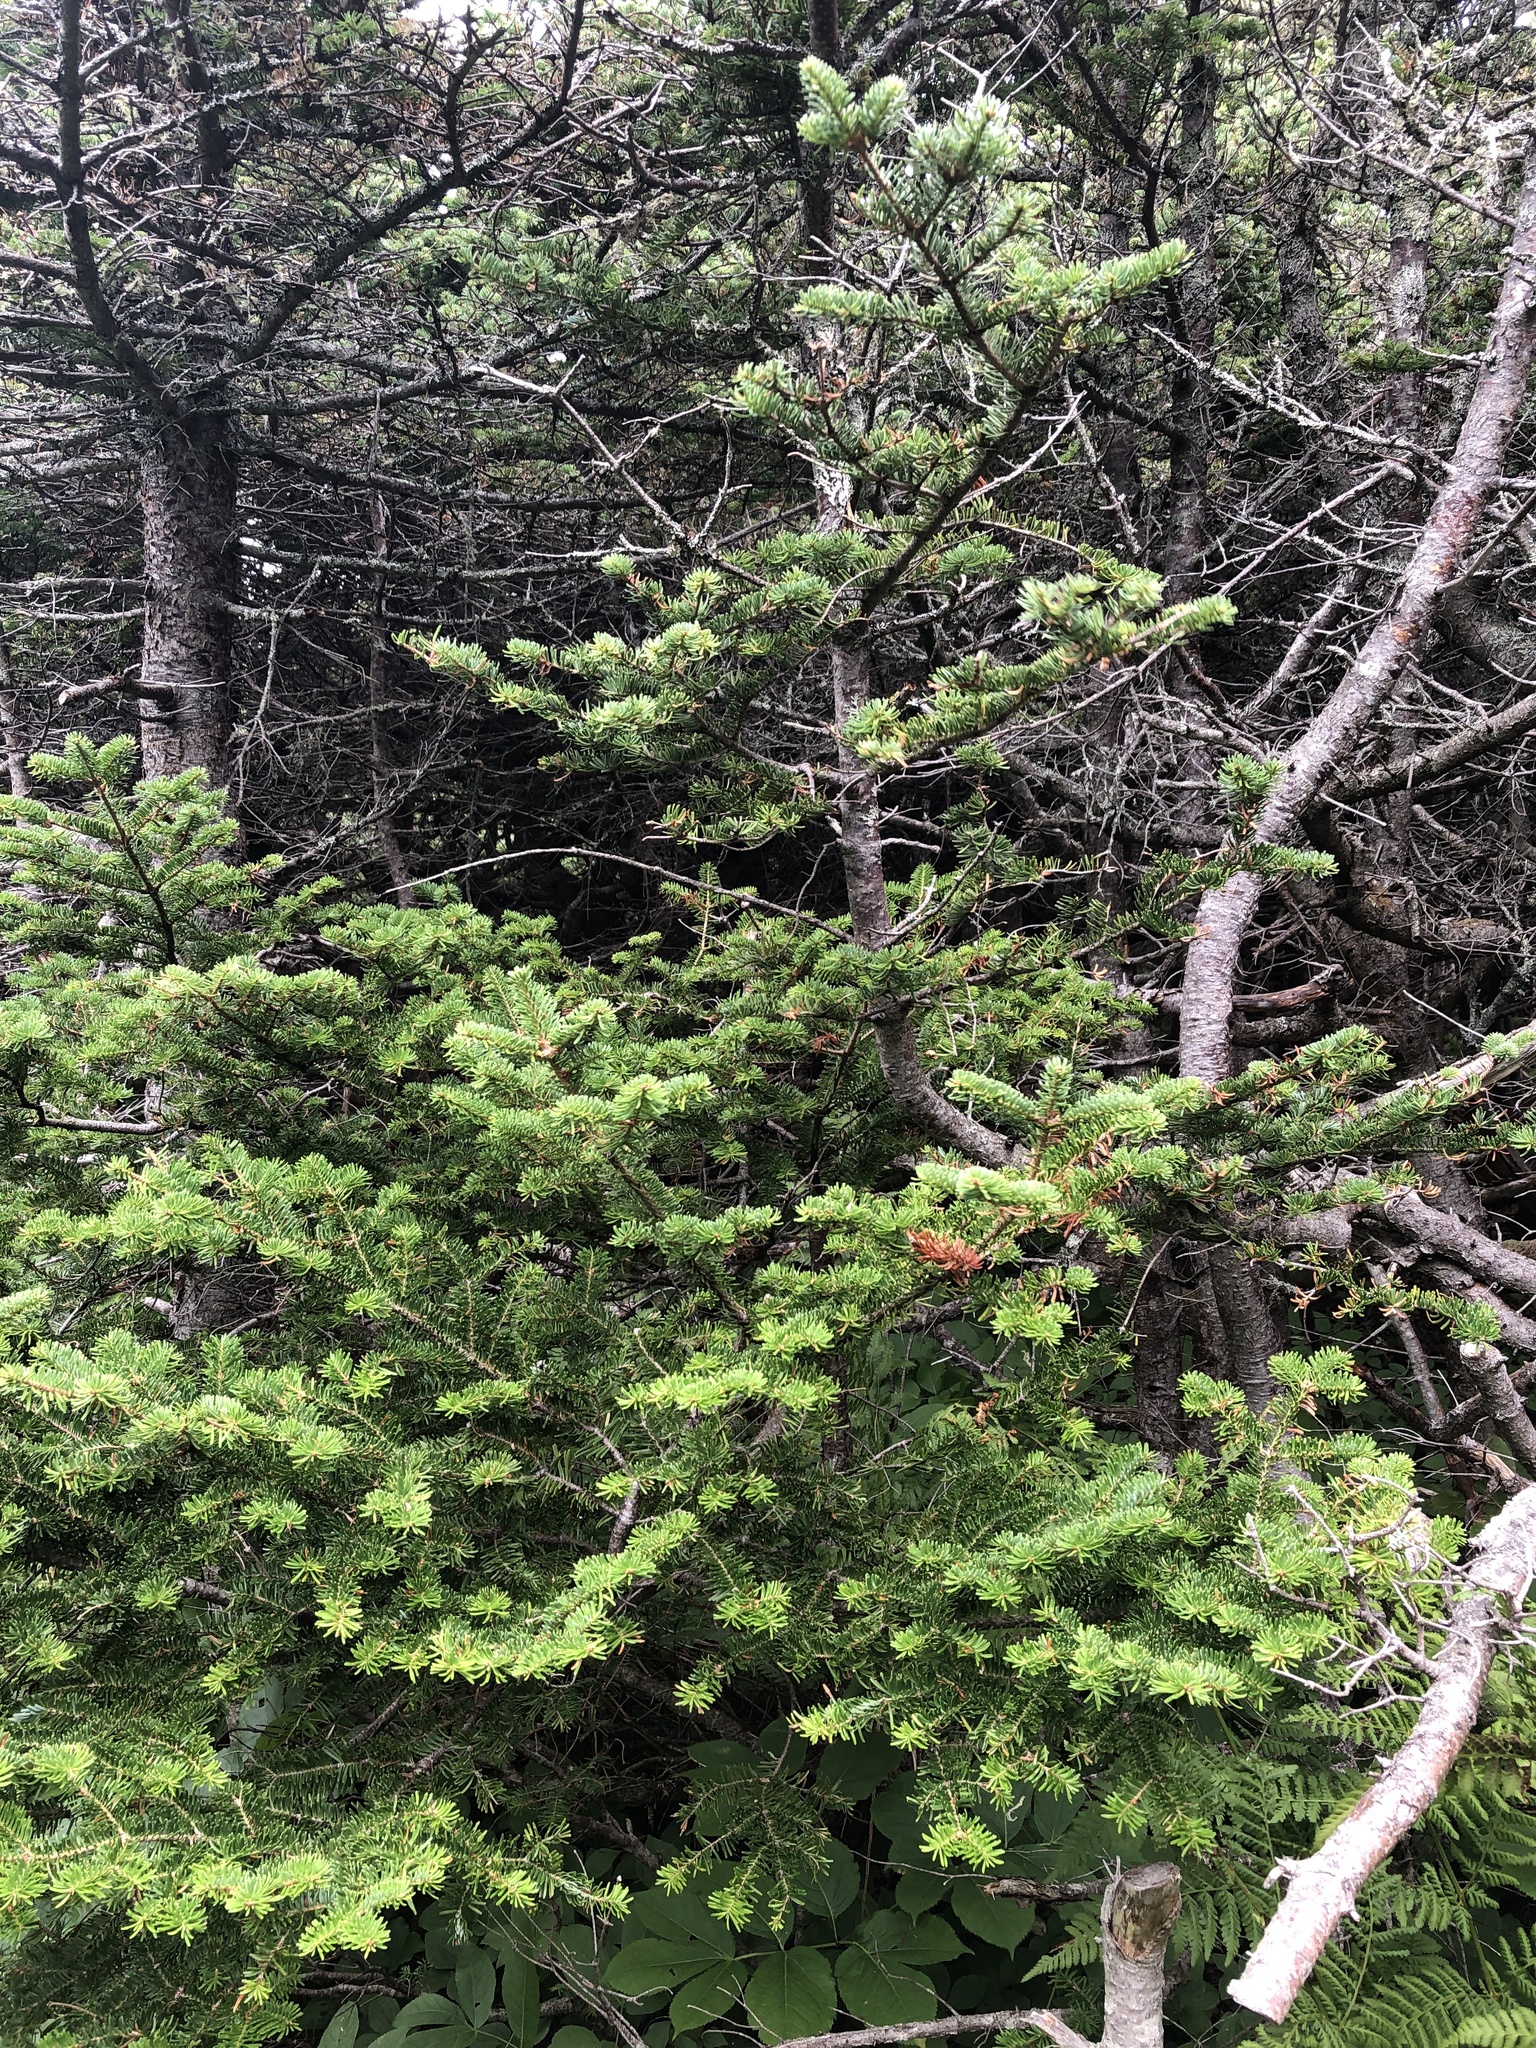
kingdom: Plantae
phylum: Tracheophyta
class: Pinopsida
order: Pinales
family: Pinaceae
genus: Abies
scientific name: Abies balsamea
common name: Balsam fir
